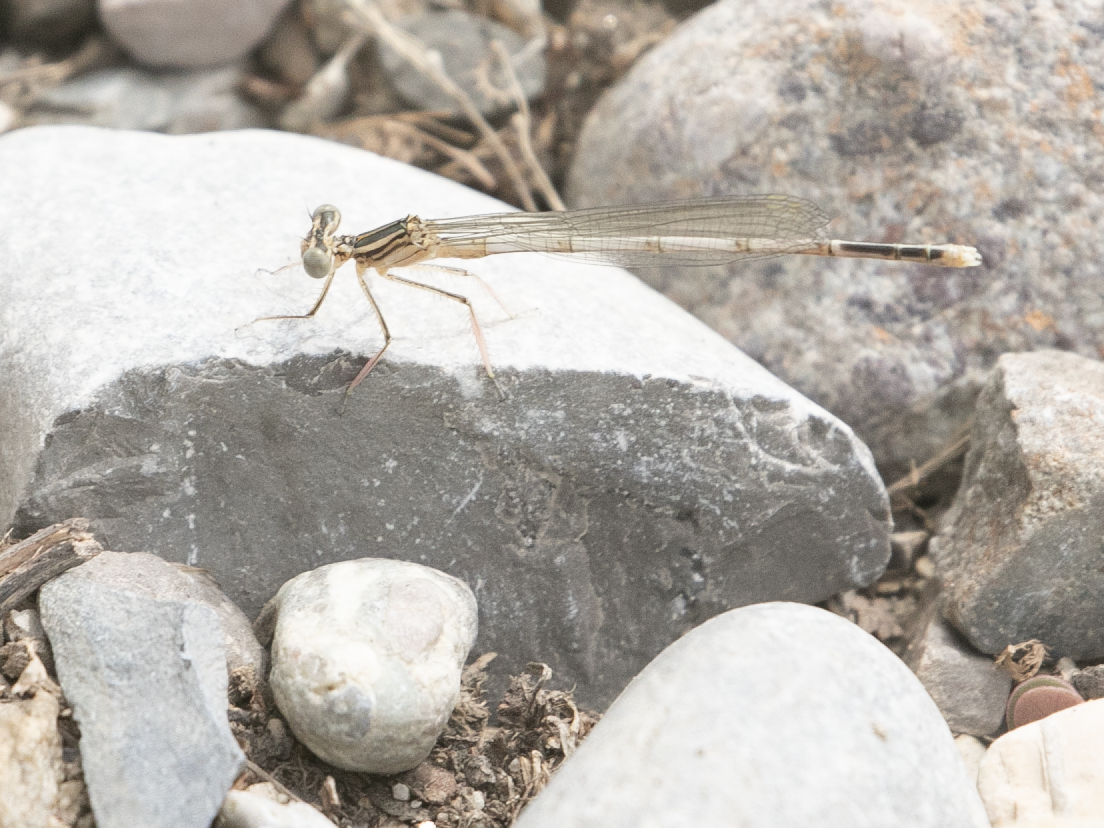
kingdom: Animalia
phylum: Arthropoda
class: Insecta
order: Odonata
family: Platycnemididae
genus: Platycnemis
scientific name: Platycnemis pennipes
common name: White-legged damselfly
